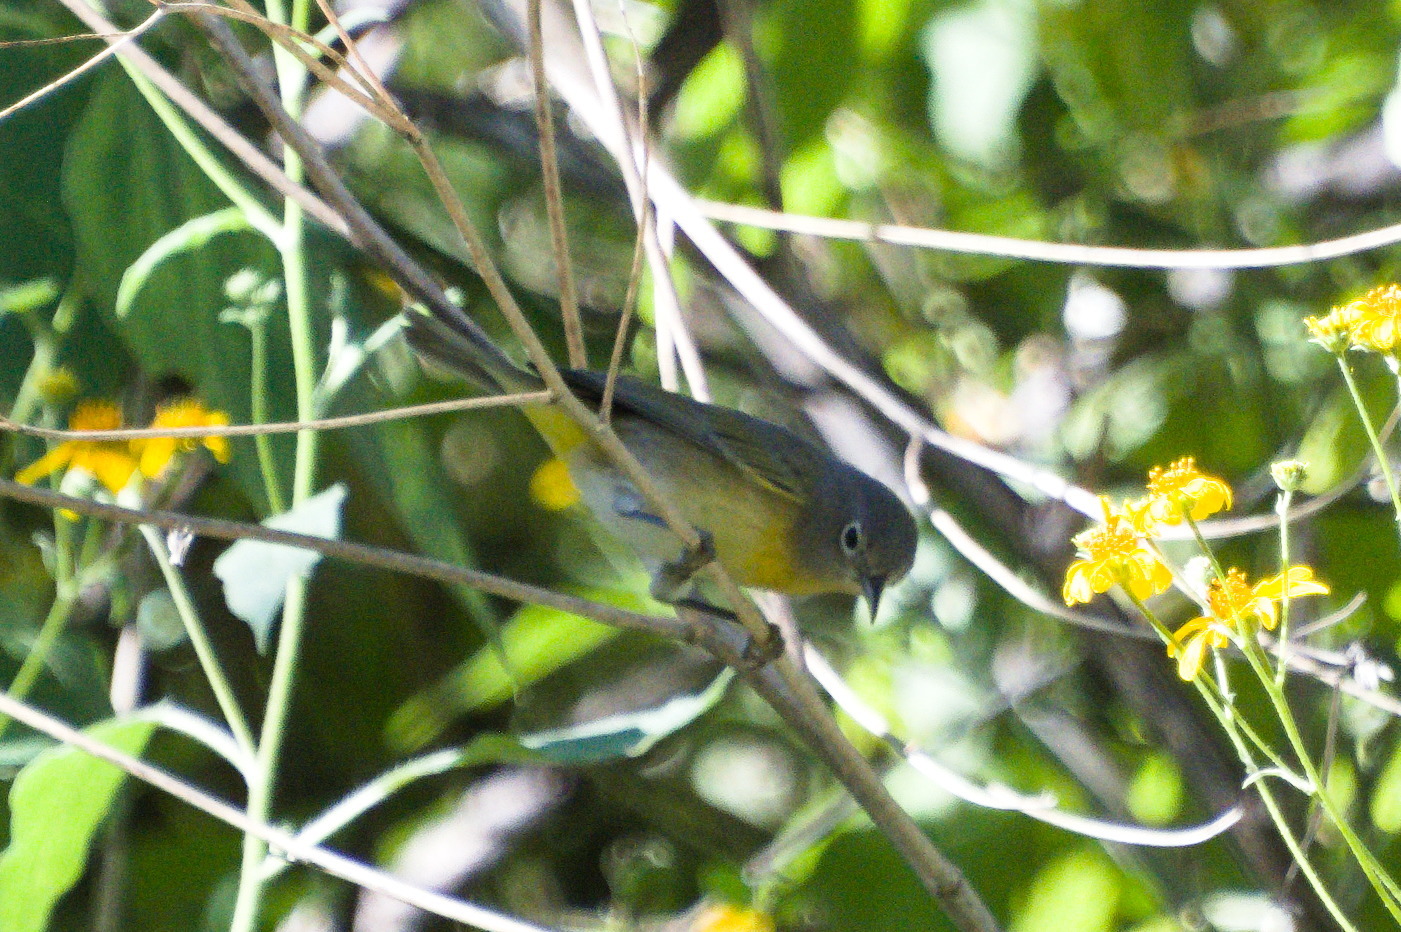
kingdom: Animalia
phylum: Chordata
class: Aves
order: Passeriformes
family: Parulidae
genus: Leiothlypis
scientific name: Leiothlypis ruficapilla
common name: Nashville warbler
